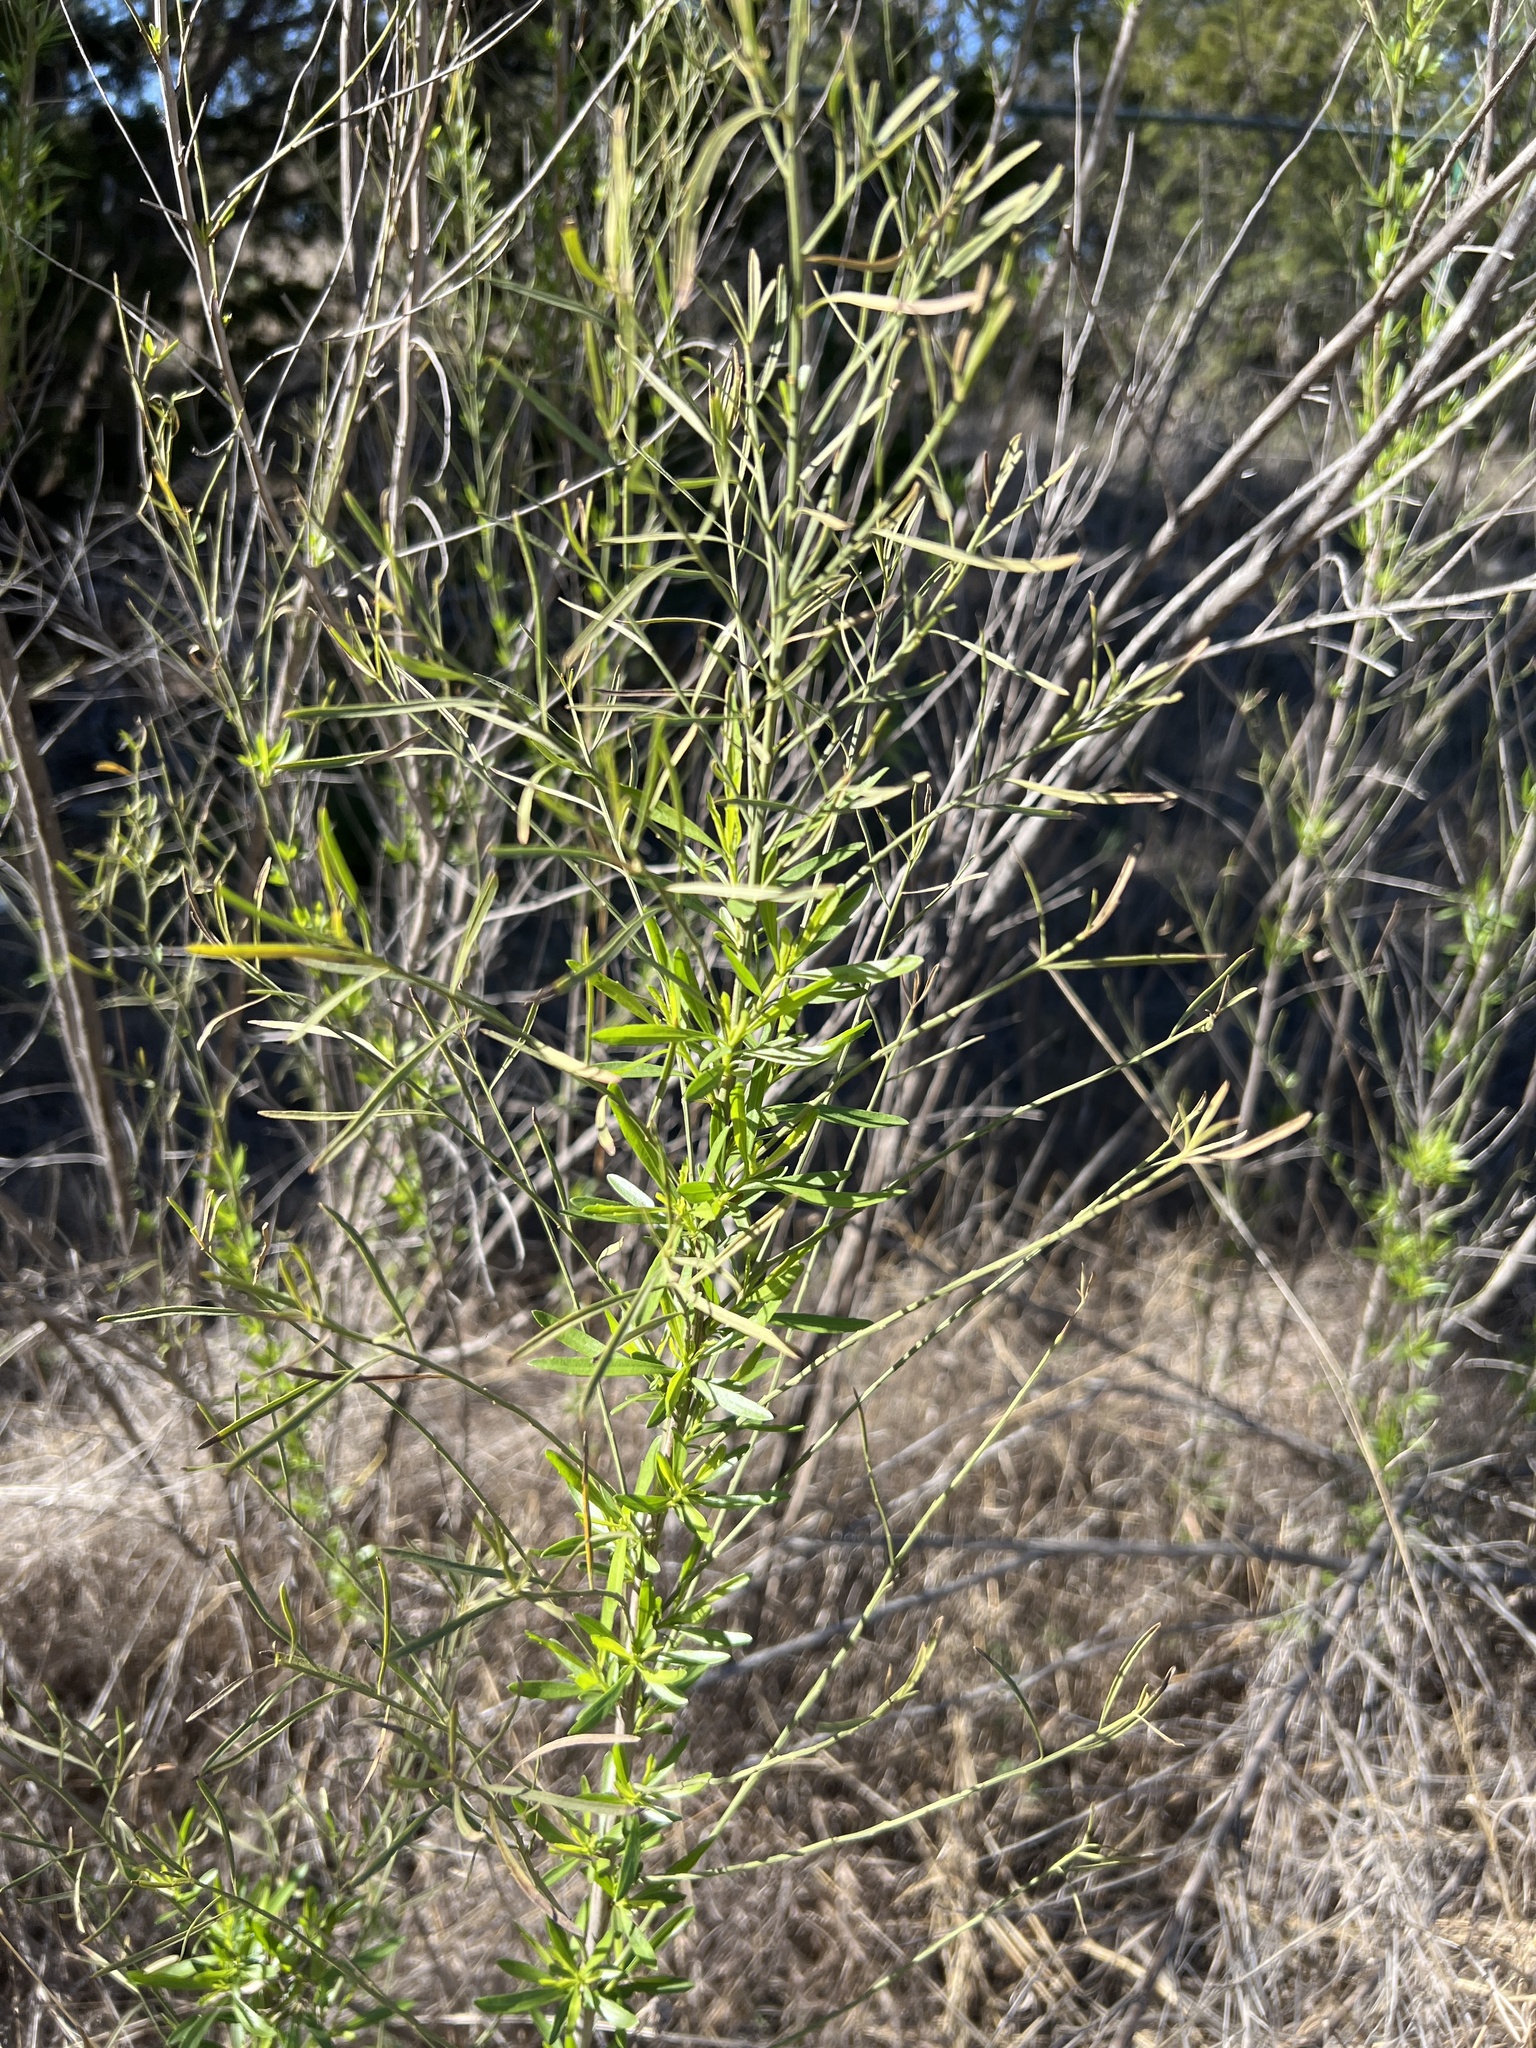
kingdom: Plantae
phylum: Tracheophyta
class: Magnoliopsida
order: Asterales
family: Asteraceae
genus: Baccharis
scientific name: Baccharis neglecta
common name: Roosevelt-weed
